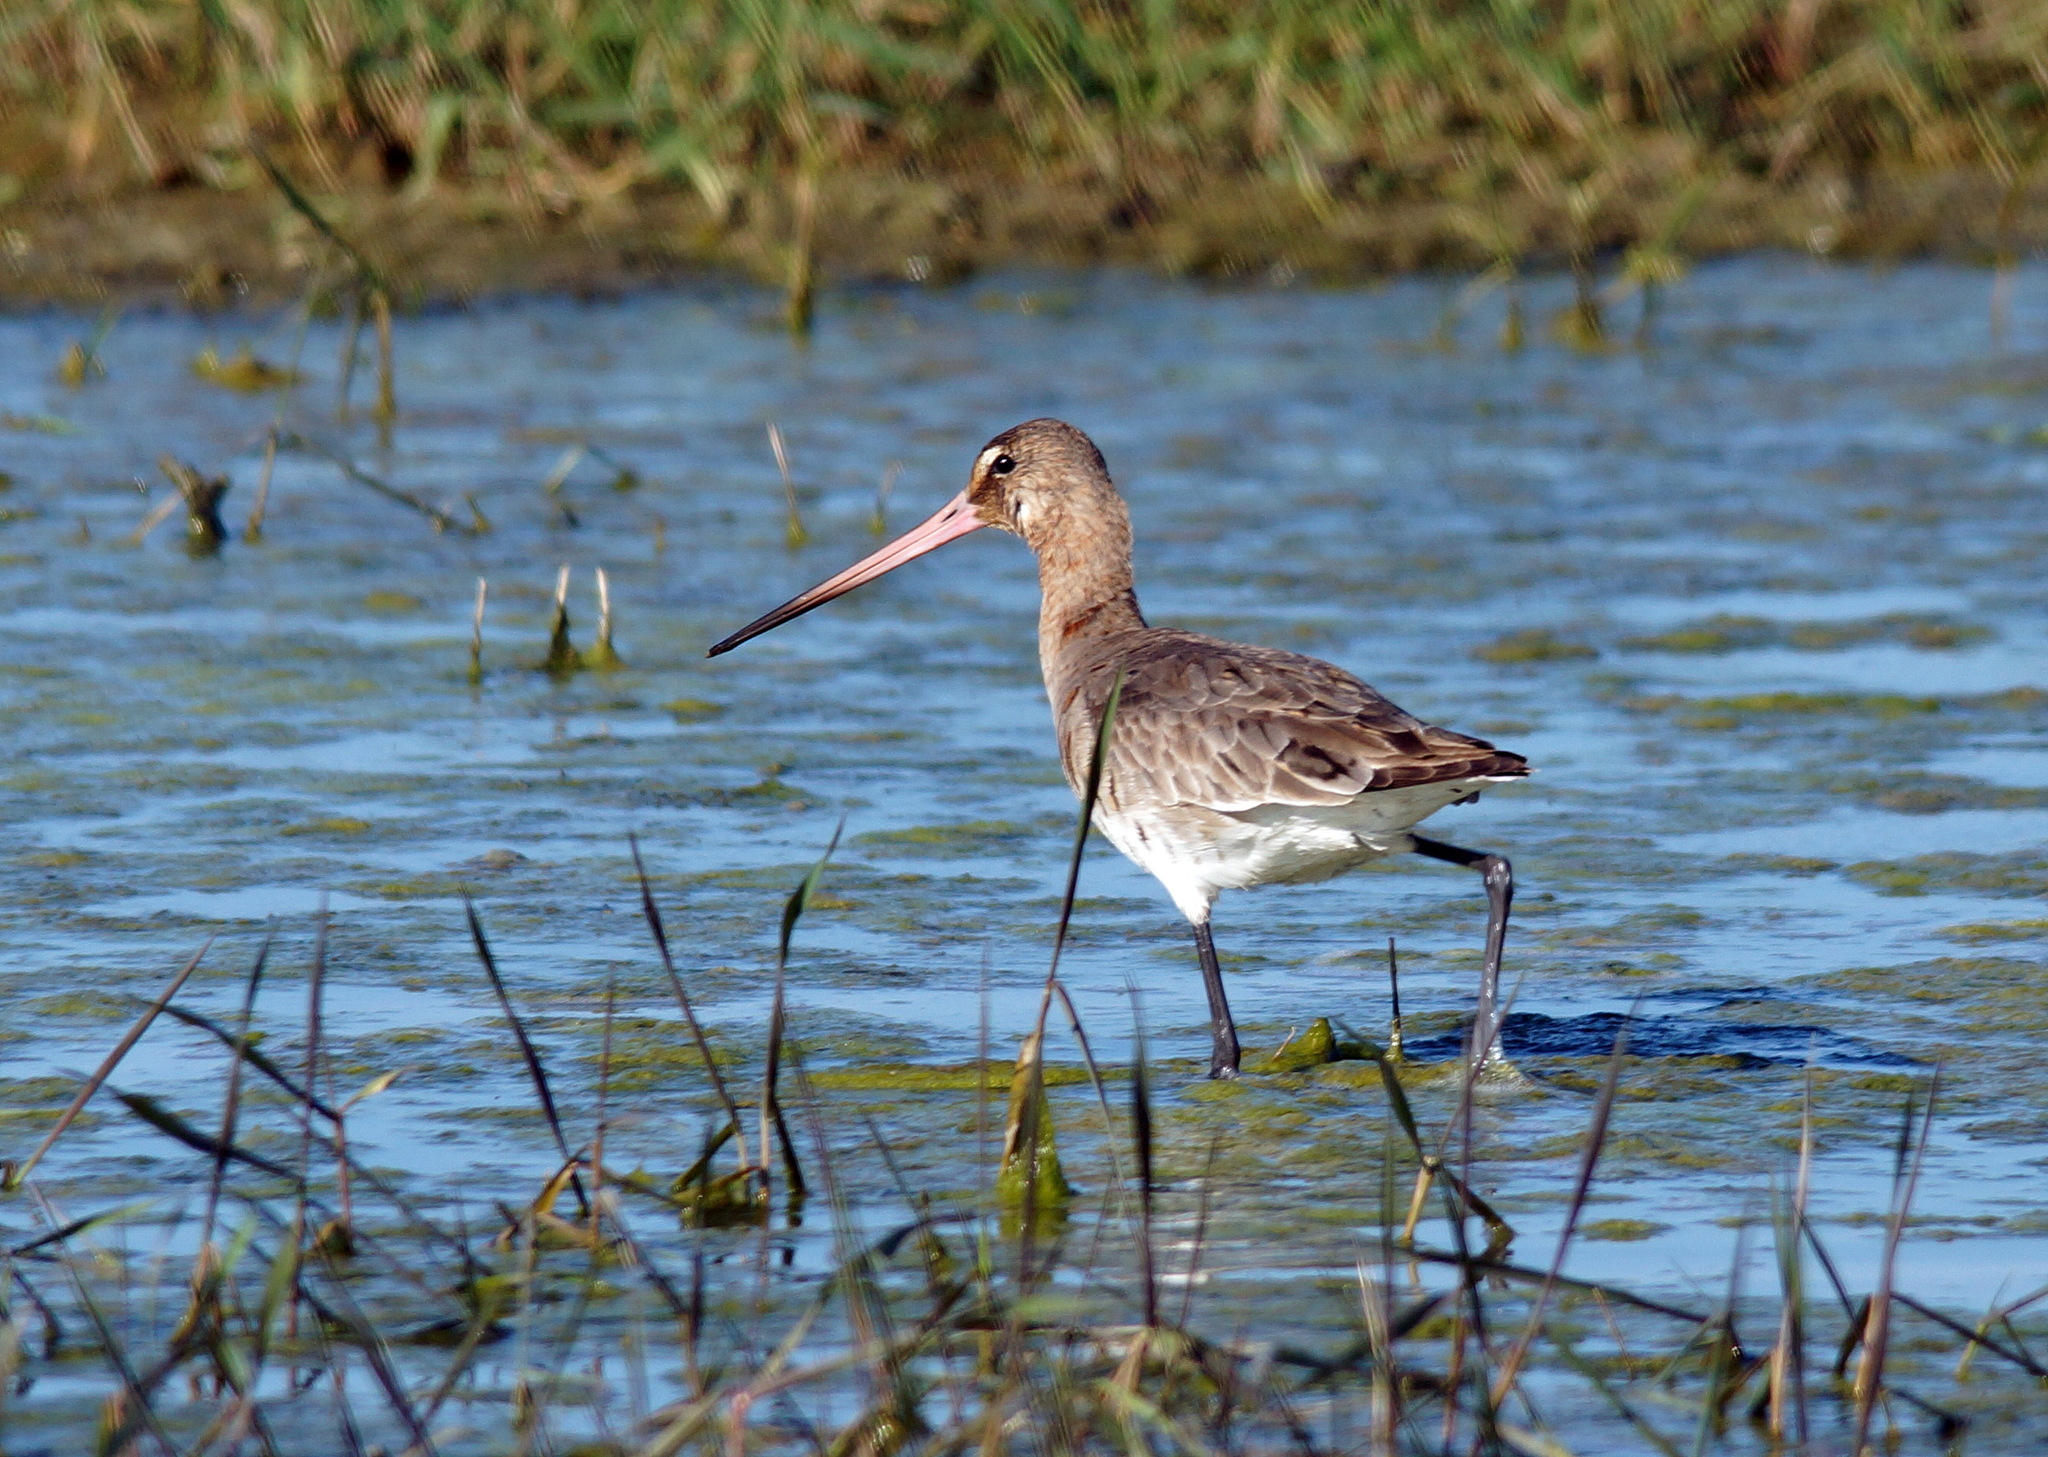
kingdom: Animalia
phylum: Chordata
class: Aves
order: Charadriiformes
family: Scolopacidae
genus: Limosa
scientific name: Limosa limosa
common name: Black-tailed godwit
